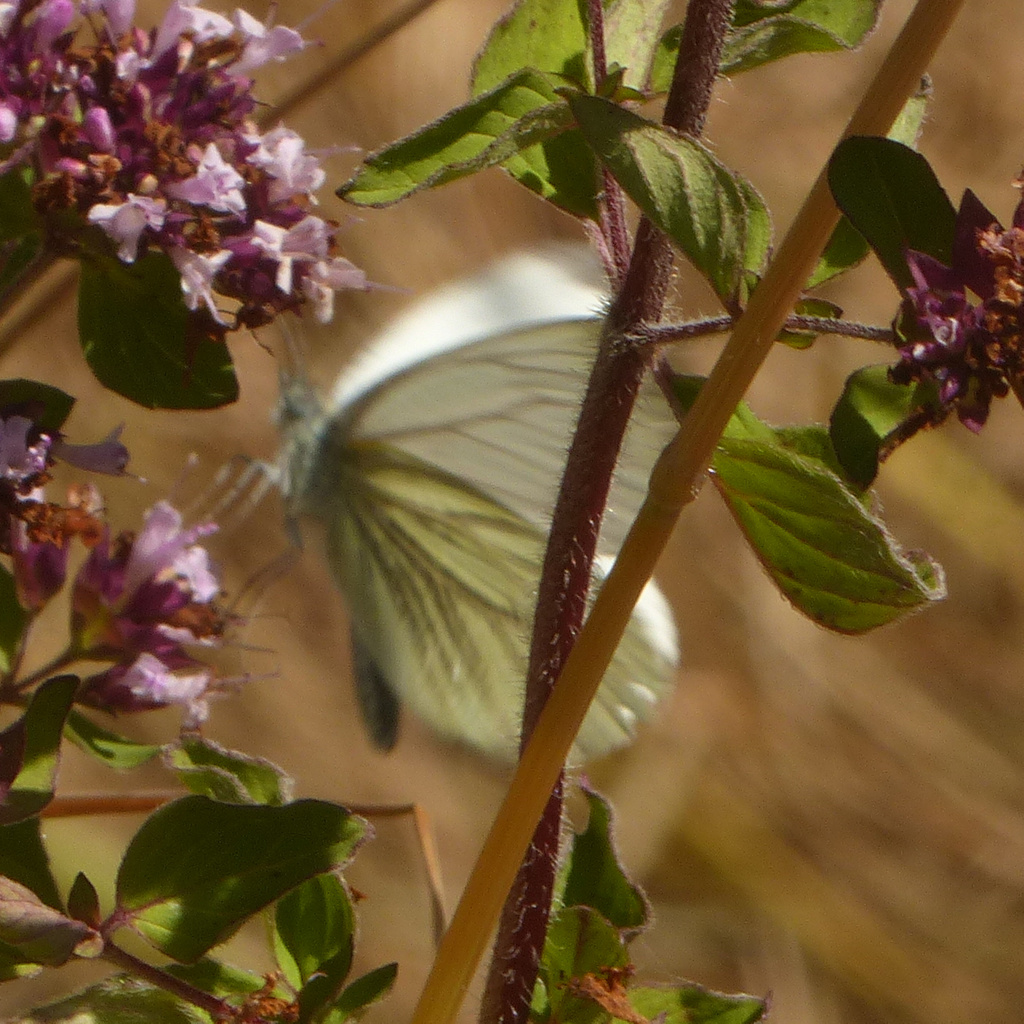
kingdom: Animalia
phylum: Arthropoda
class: Insecta
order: Lepidoptera
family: Pieridae
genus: Pieris
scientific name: Pieris napi
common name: Green-veined white
